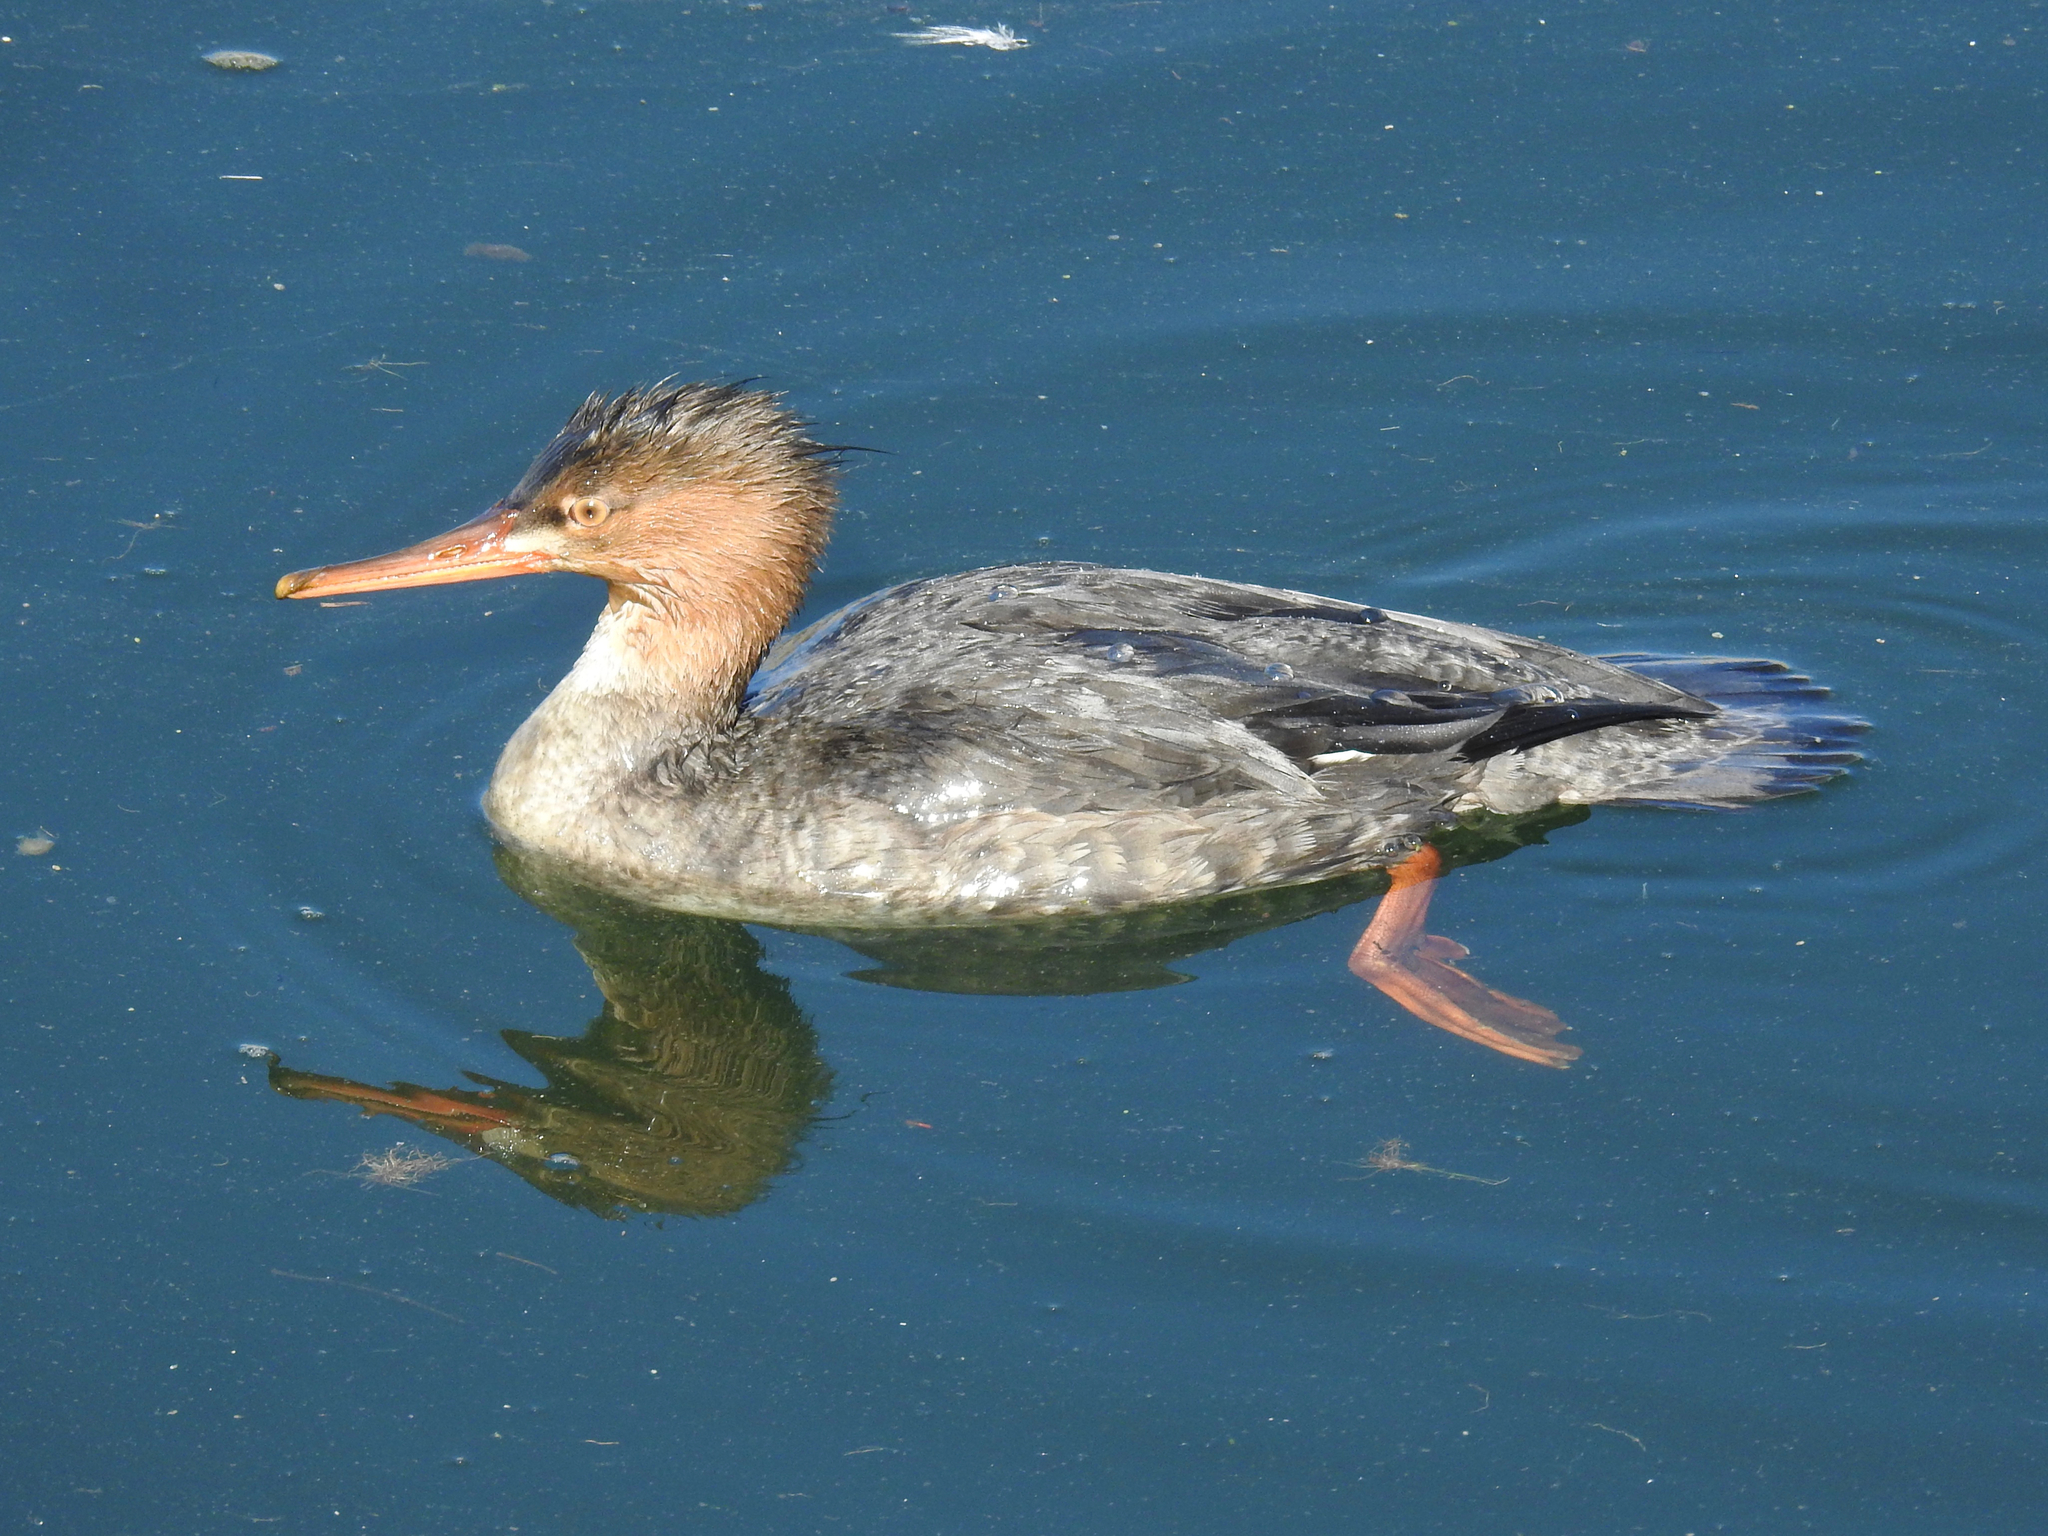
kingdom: Animalia
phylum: Chordata
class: Aves
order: Anseriformes
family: Anatidae
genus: Mergus
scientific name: Mergus serrator
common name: Red-breasted merganser
